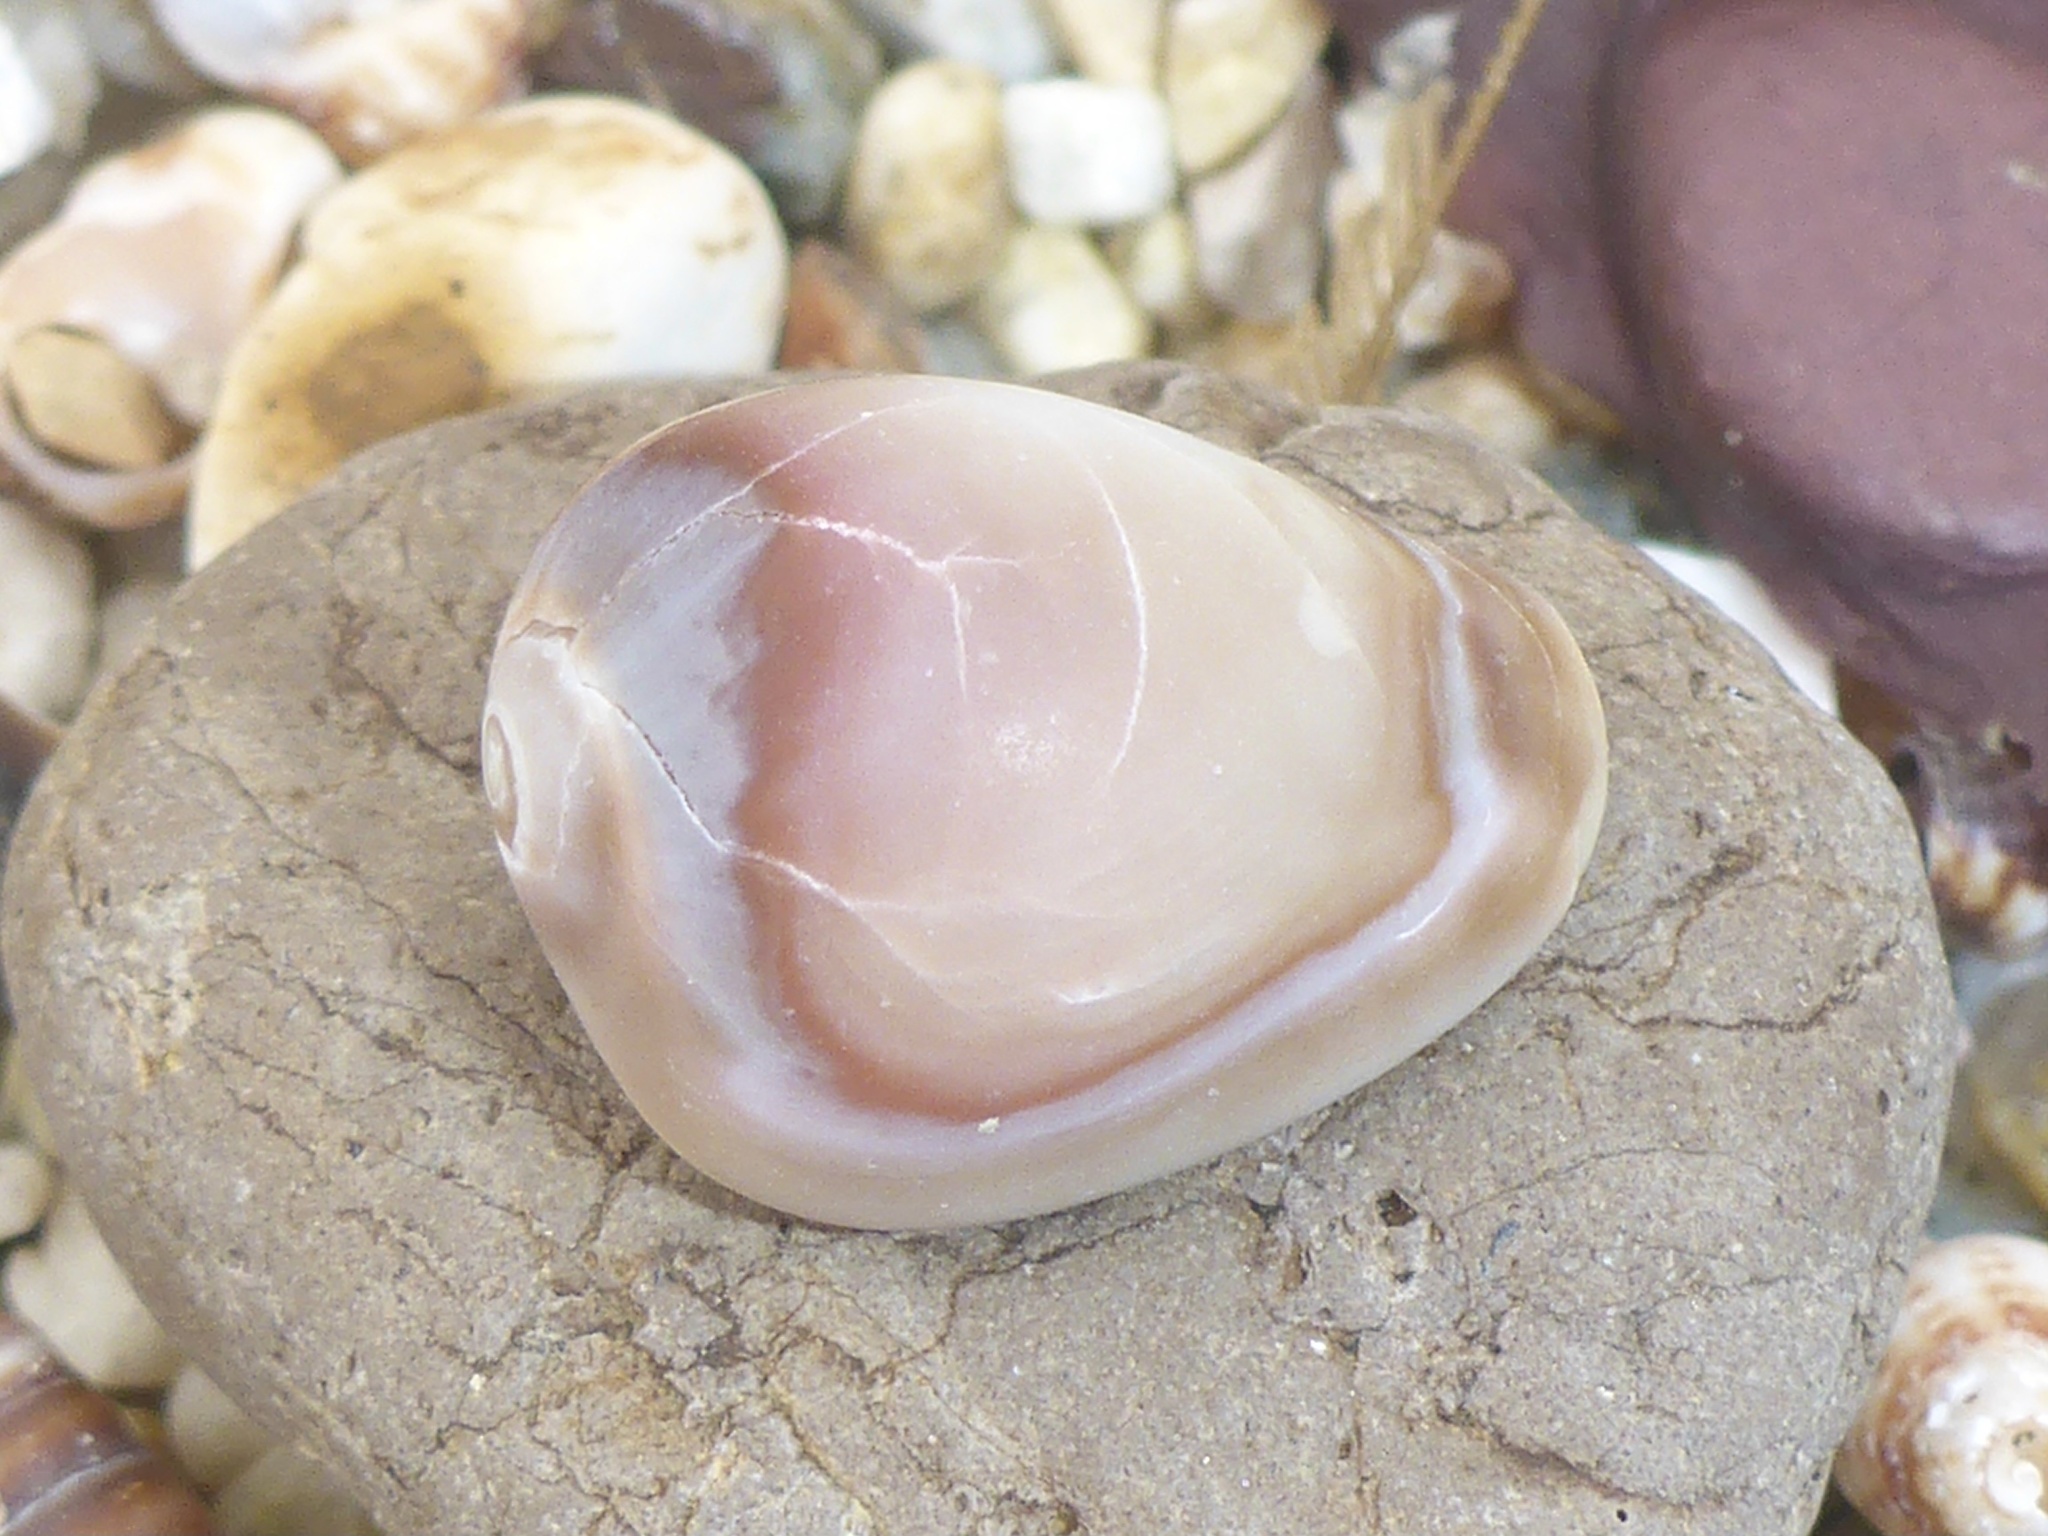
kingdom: Animalia
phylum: Mollusca
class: Gastropoda
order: Littorinimorpha
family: Eratoidae
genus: Hespererato
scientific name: Hespererato vitellina
